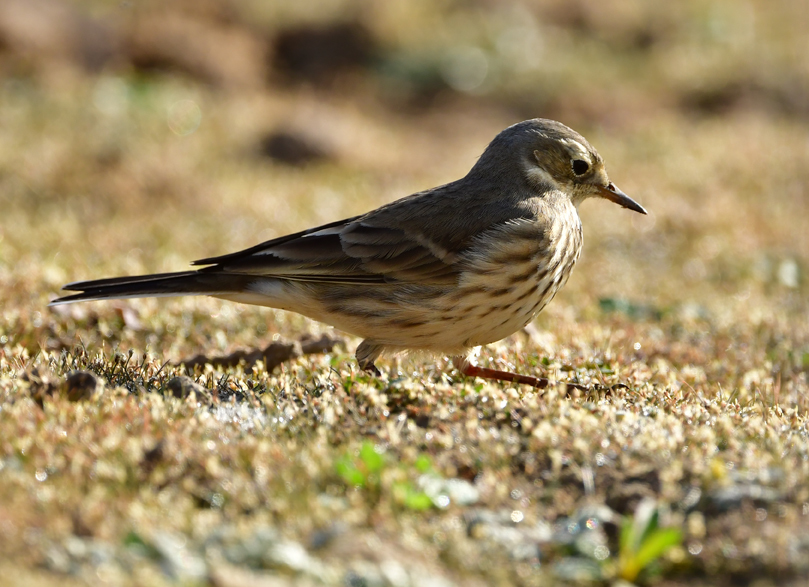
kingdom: Animalia
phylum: Chordata
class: Aves
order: Passeriformes
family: Motacillidae
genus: Anthus
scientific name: Anthus rubescens
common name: Buff-bellied pipit
